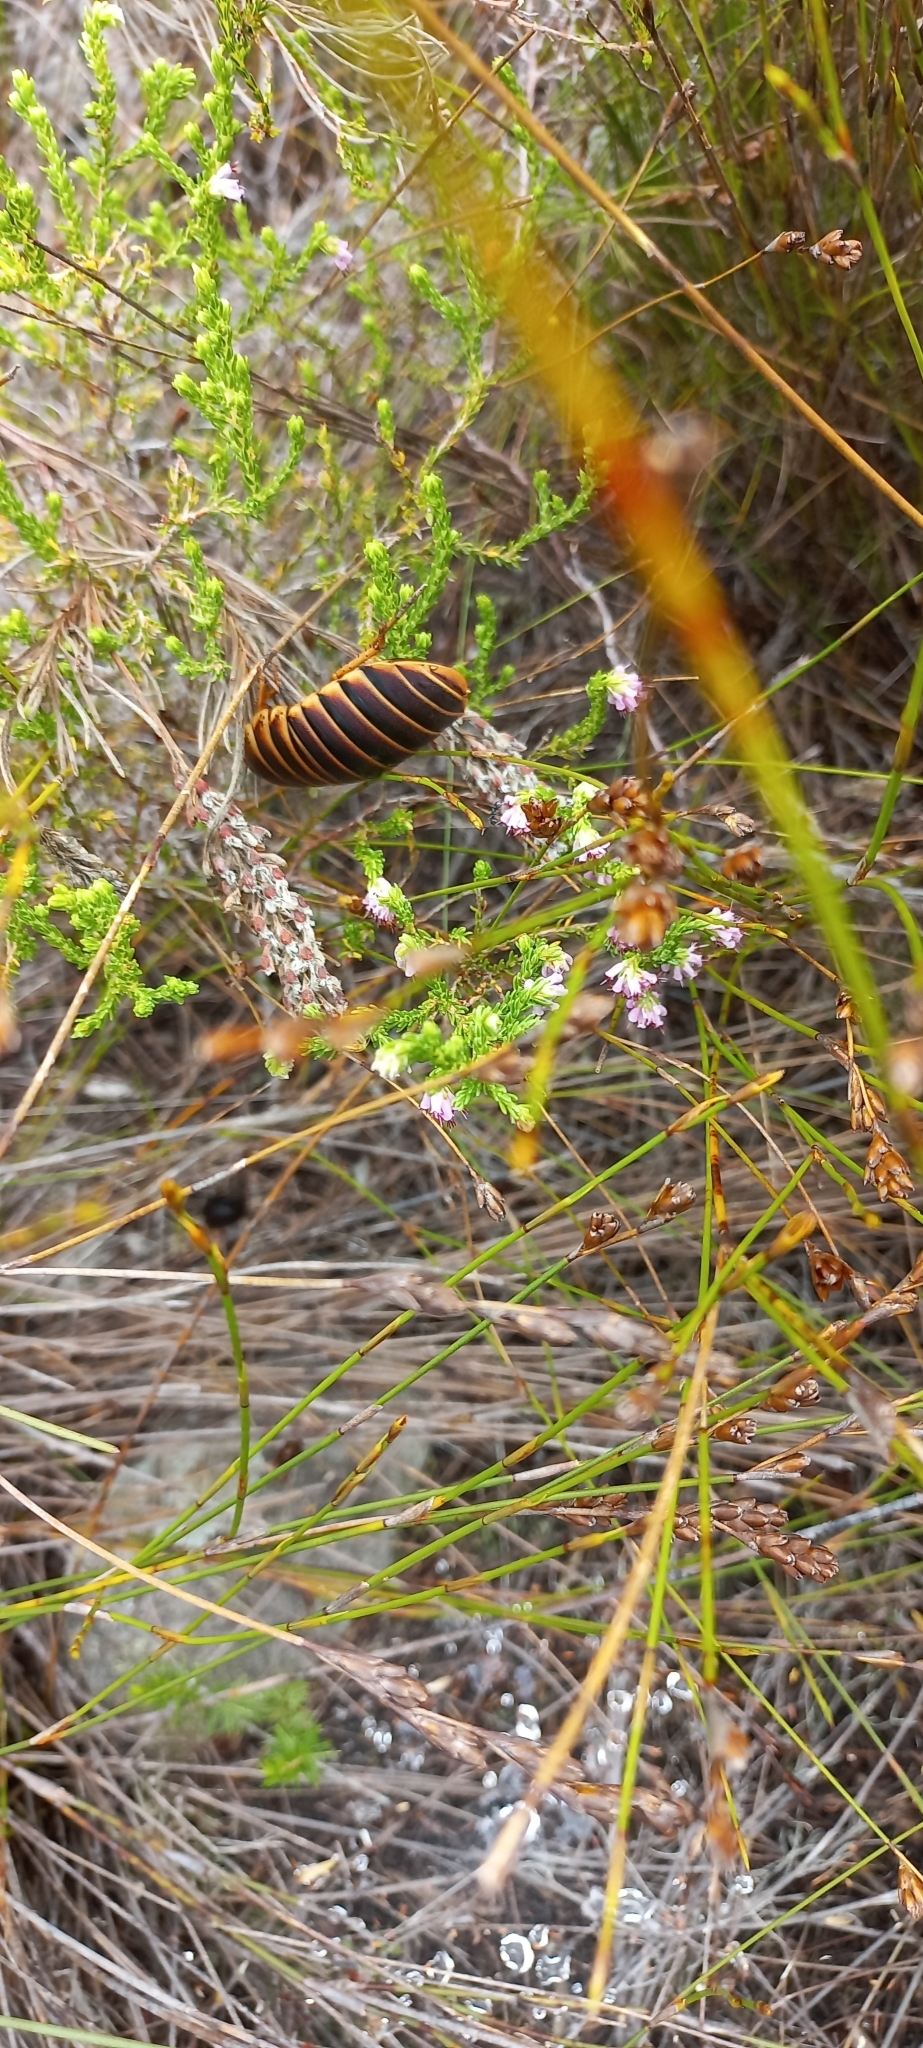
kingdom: Animalia
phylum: Arthropoda
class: Insecta
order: Blattodea
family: Blaberidae
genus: Aptera
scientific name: Aptera fusca
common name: Cape mountain cockroach
